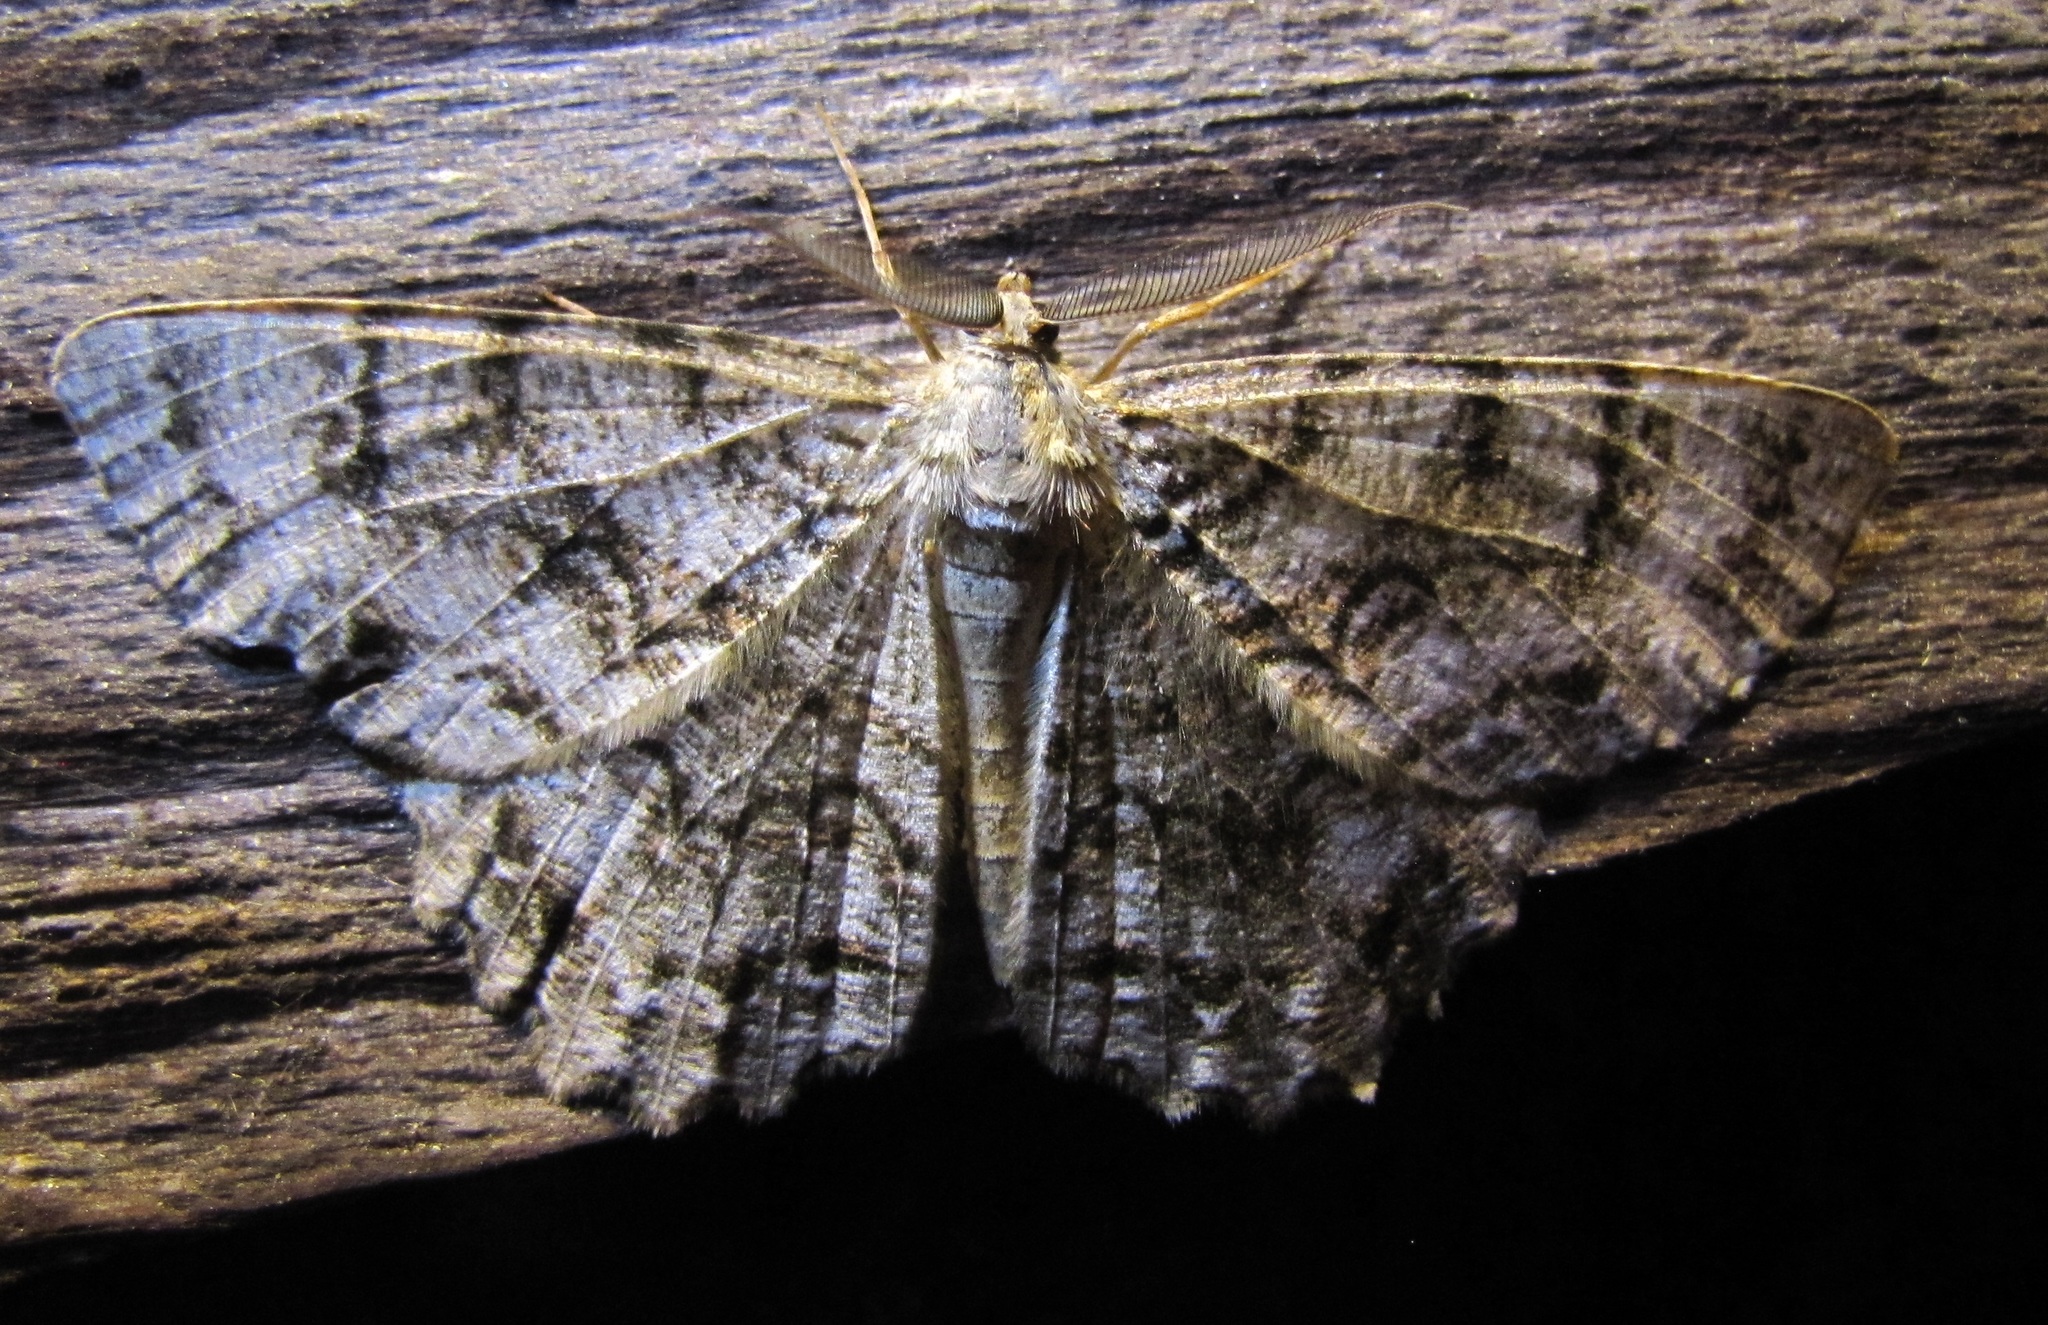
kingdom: Animalia
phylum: Arthropoda
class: Insecta
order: Lepidoptera
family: Geometridae
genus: Epimecis
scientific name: Epimecis hortaria
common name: Tulip-tree beauty
